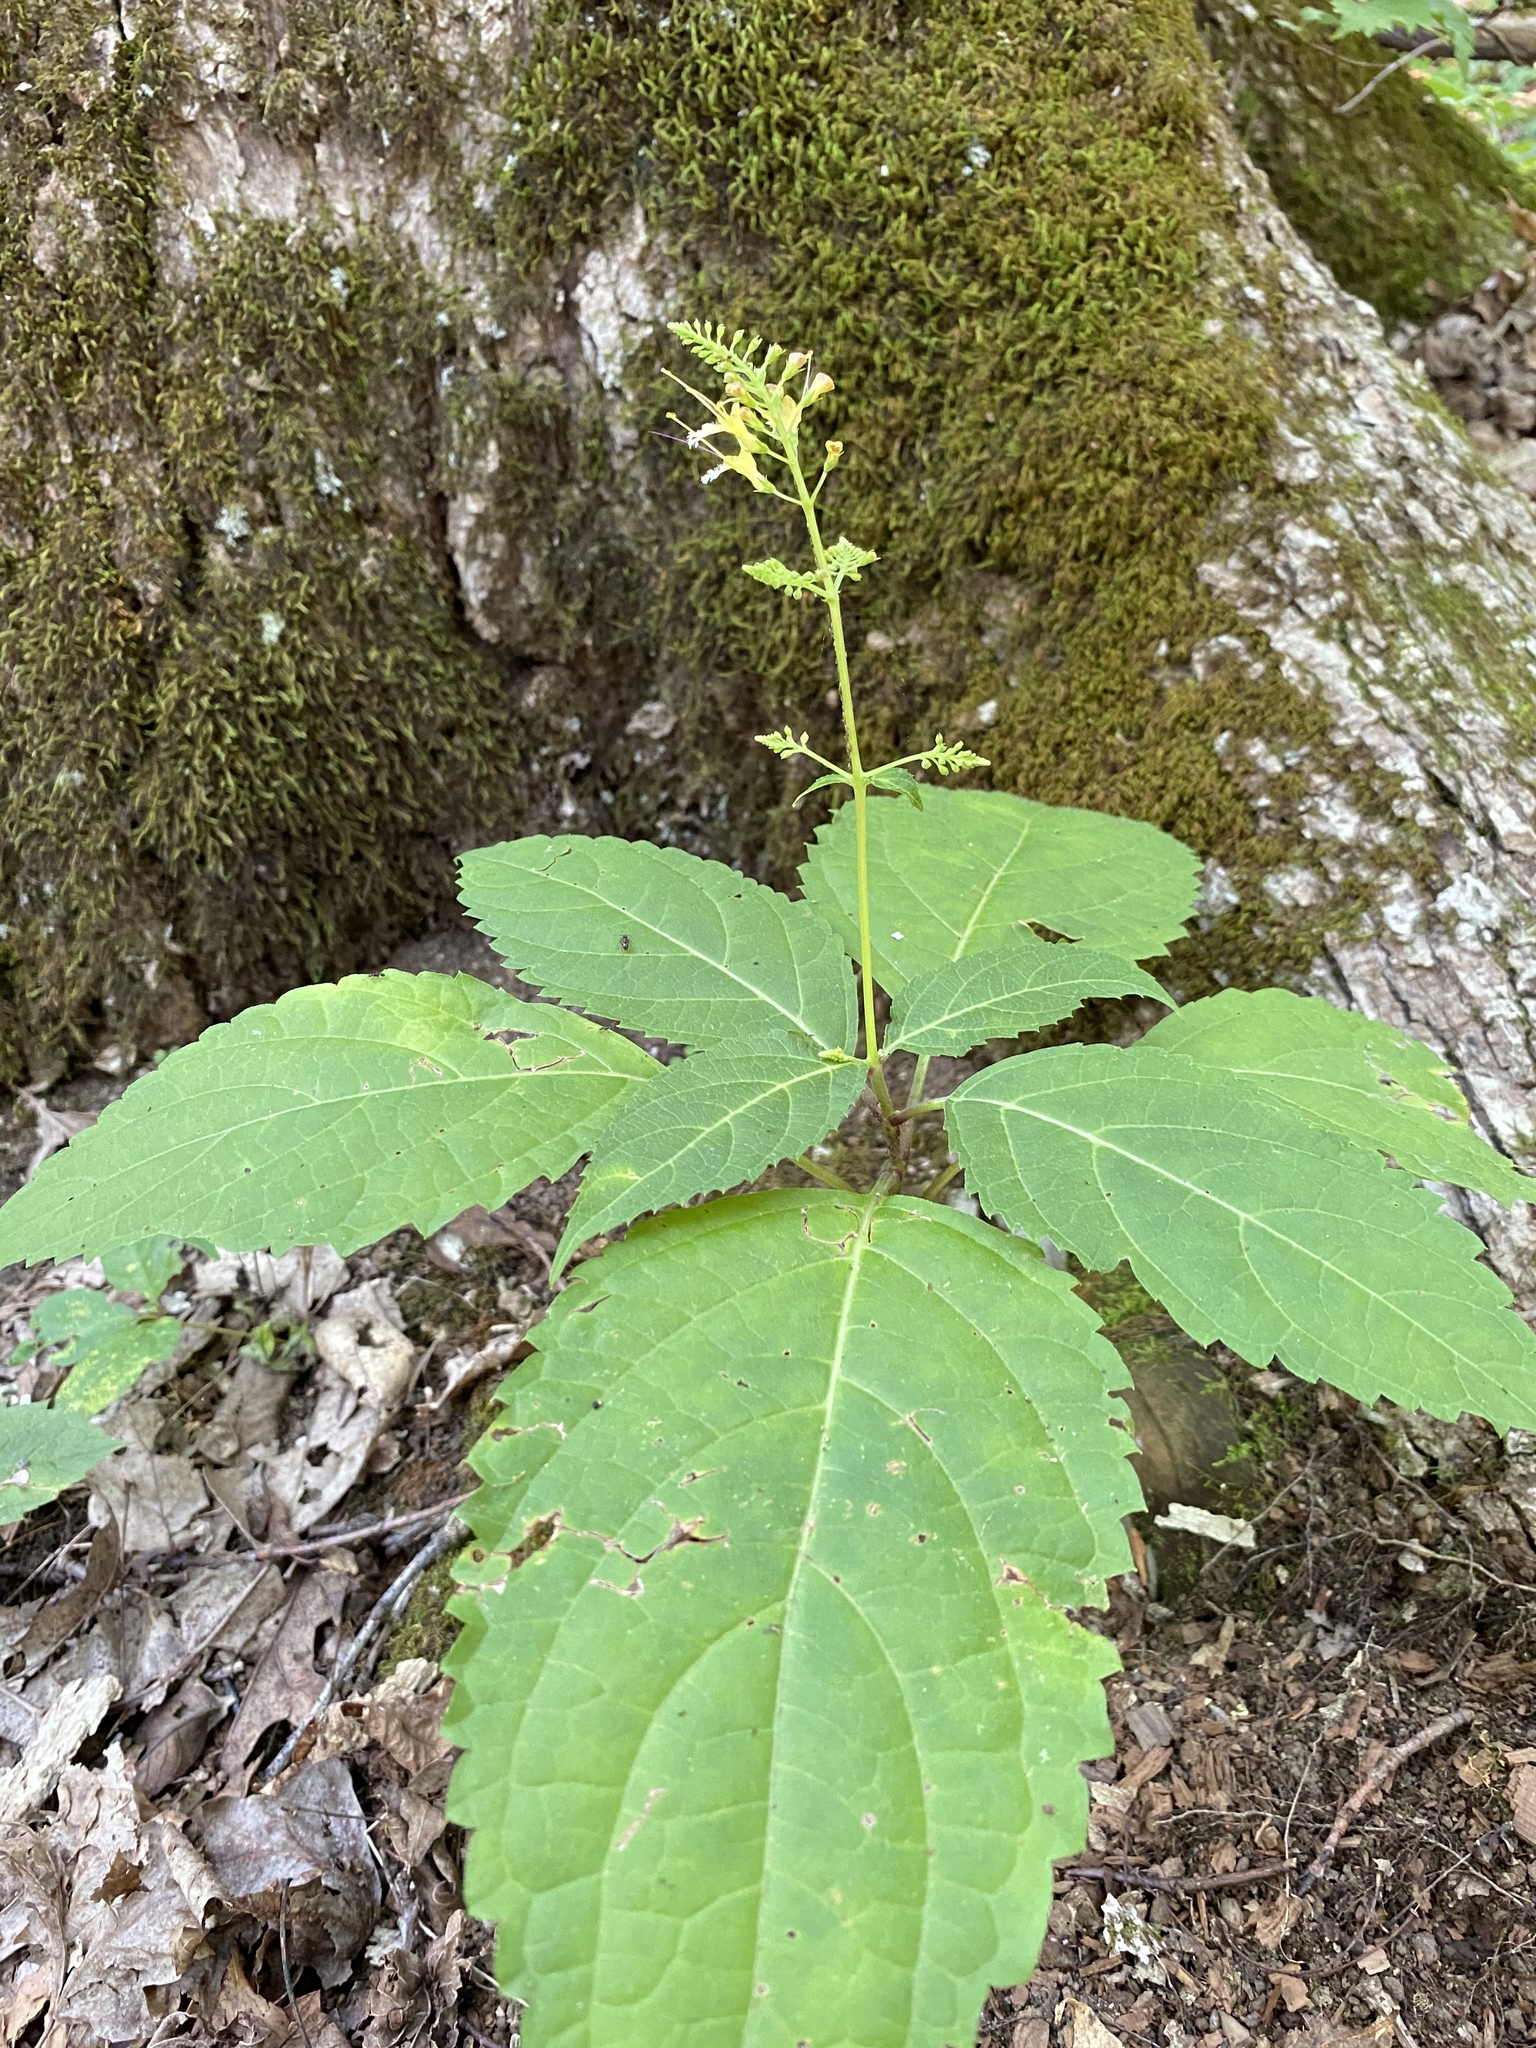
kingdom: Plantae
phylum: Tracheophyta
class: Magnoliopsida
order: Lamiales
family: Lamiaceae
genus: Collinsonia
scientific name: Collinsonia canadensis
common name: Northern horsebalm
